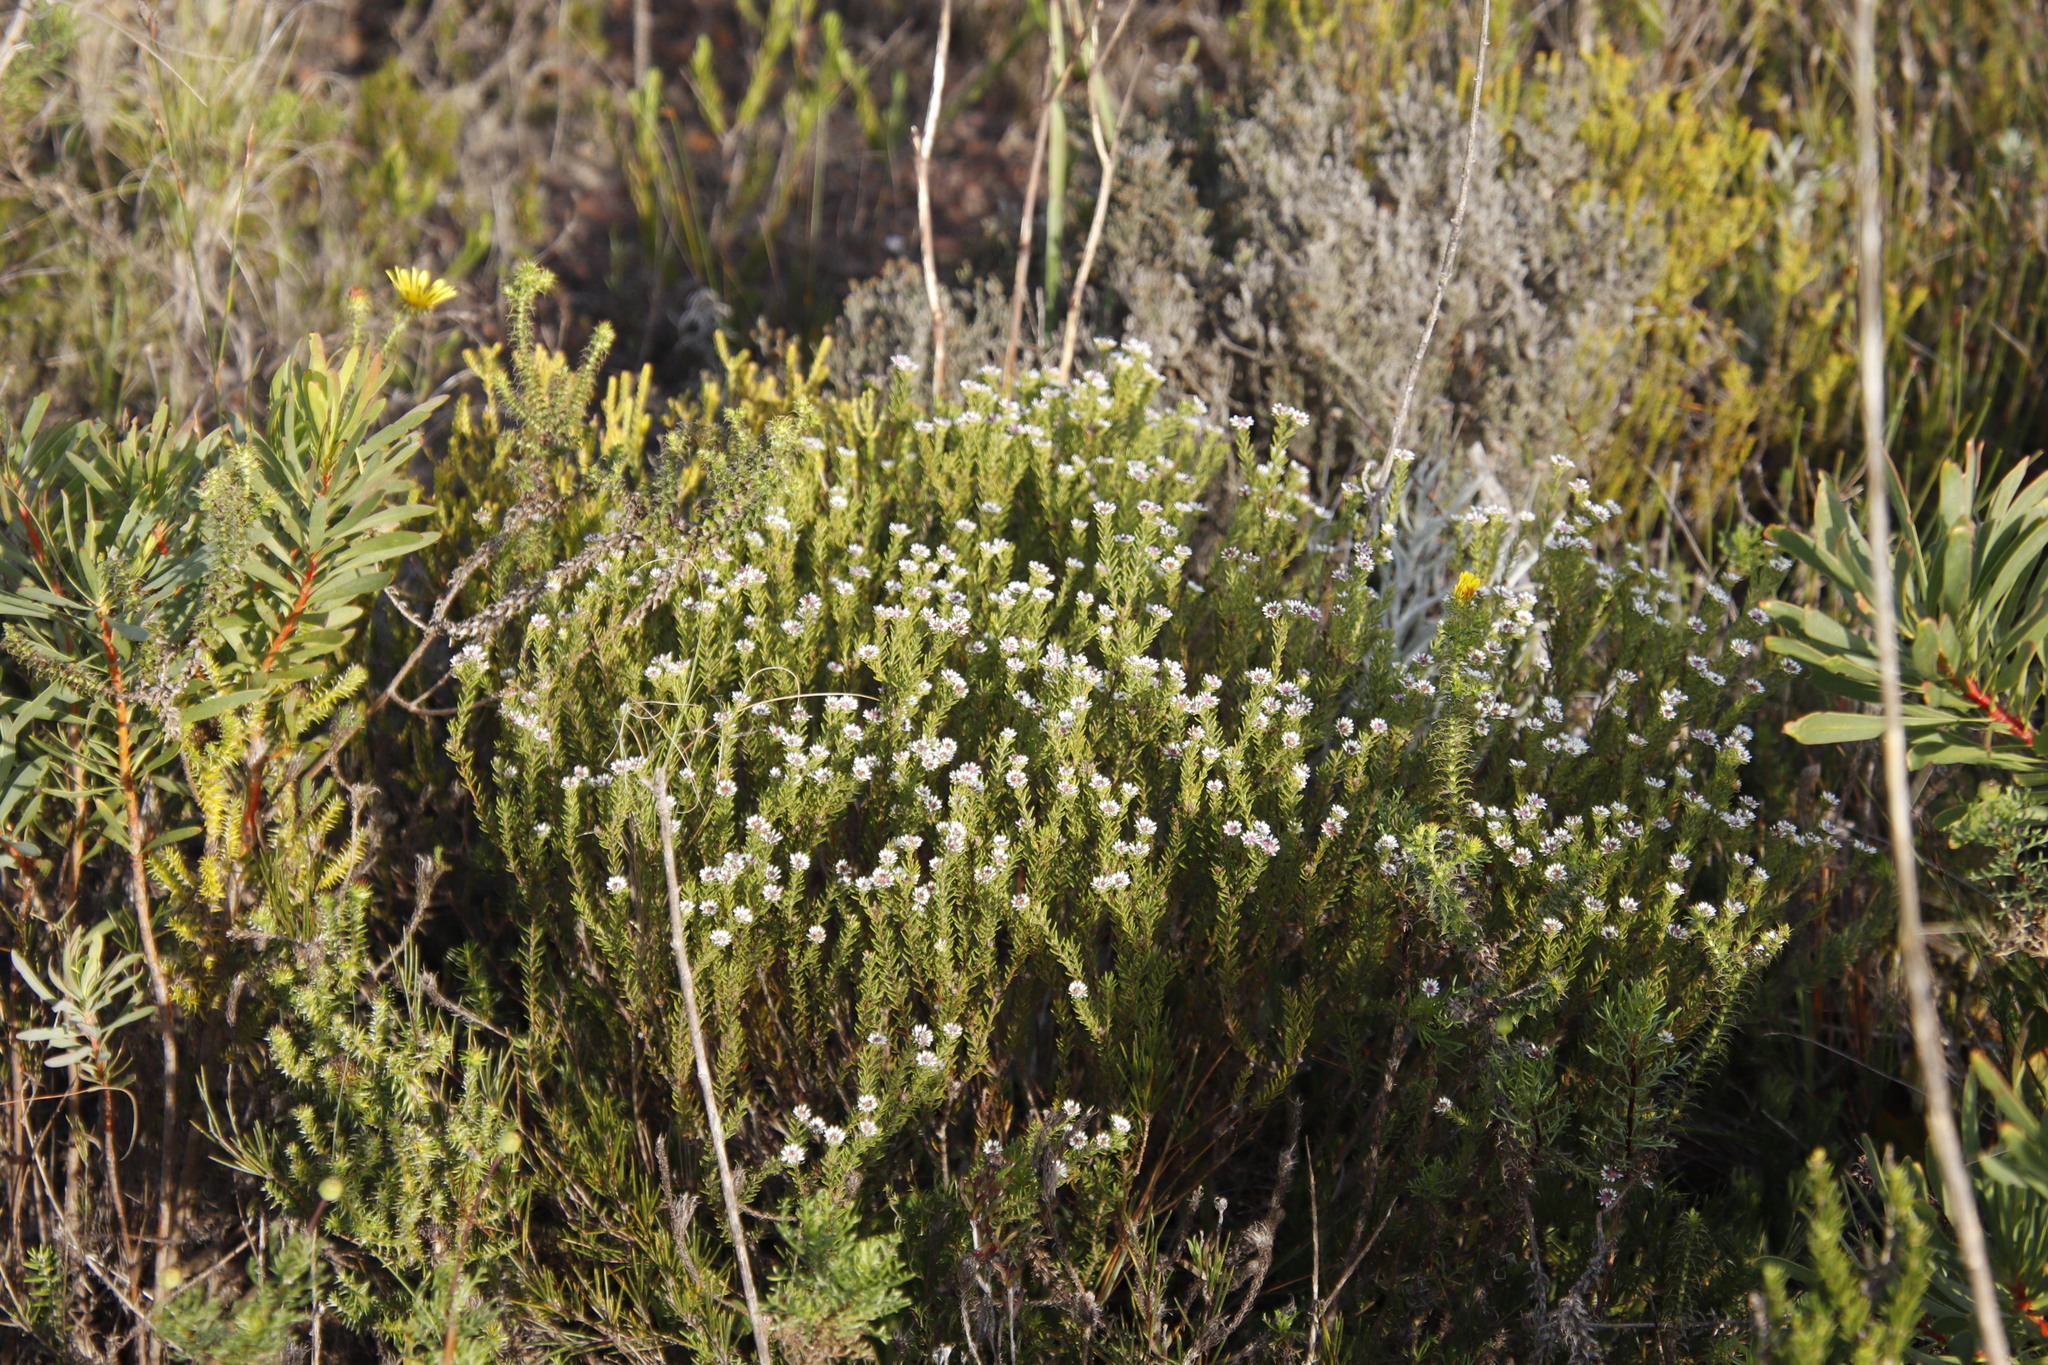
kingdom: Plantae
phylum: Tracheophyta
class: Magnoliopsida
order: Bruniales
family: Bruniaceae
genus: Staavia
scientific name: Staavia radiata
